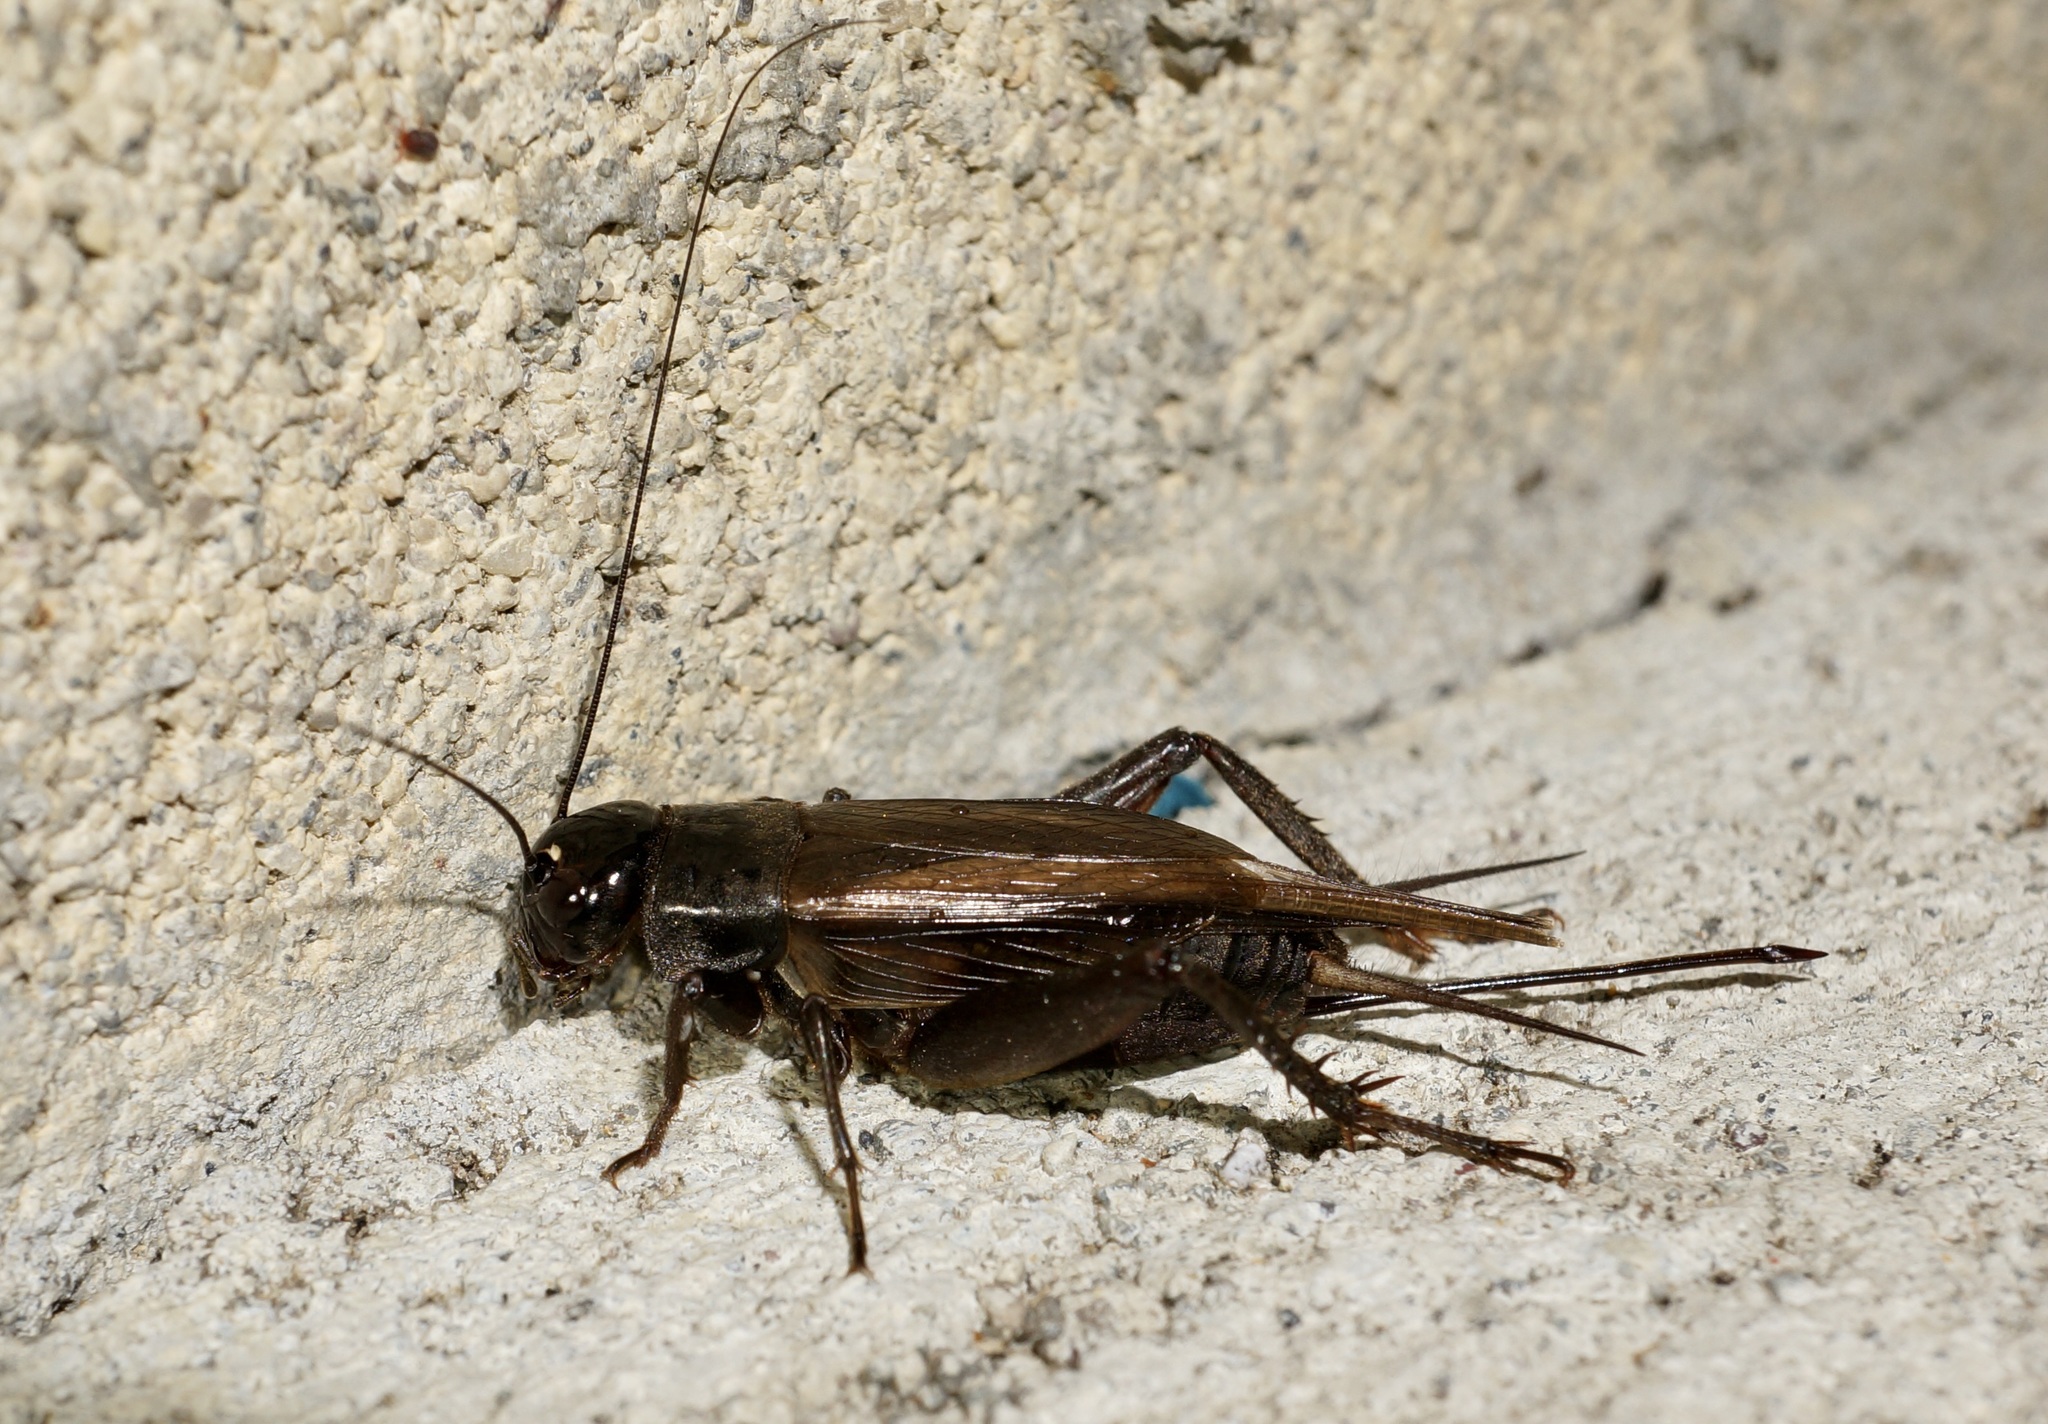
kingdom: Animalia
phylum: Arthropoda
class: Insecta
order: Orthoptera
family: Gryllidae
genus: Teleogryllus
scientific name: Teleogryllus commodus
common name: Black field cricket
